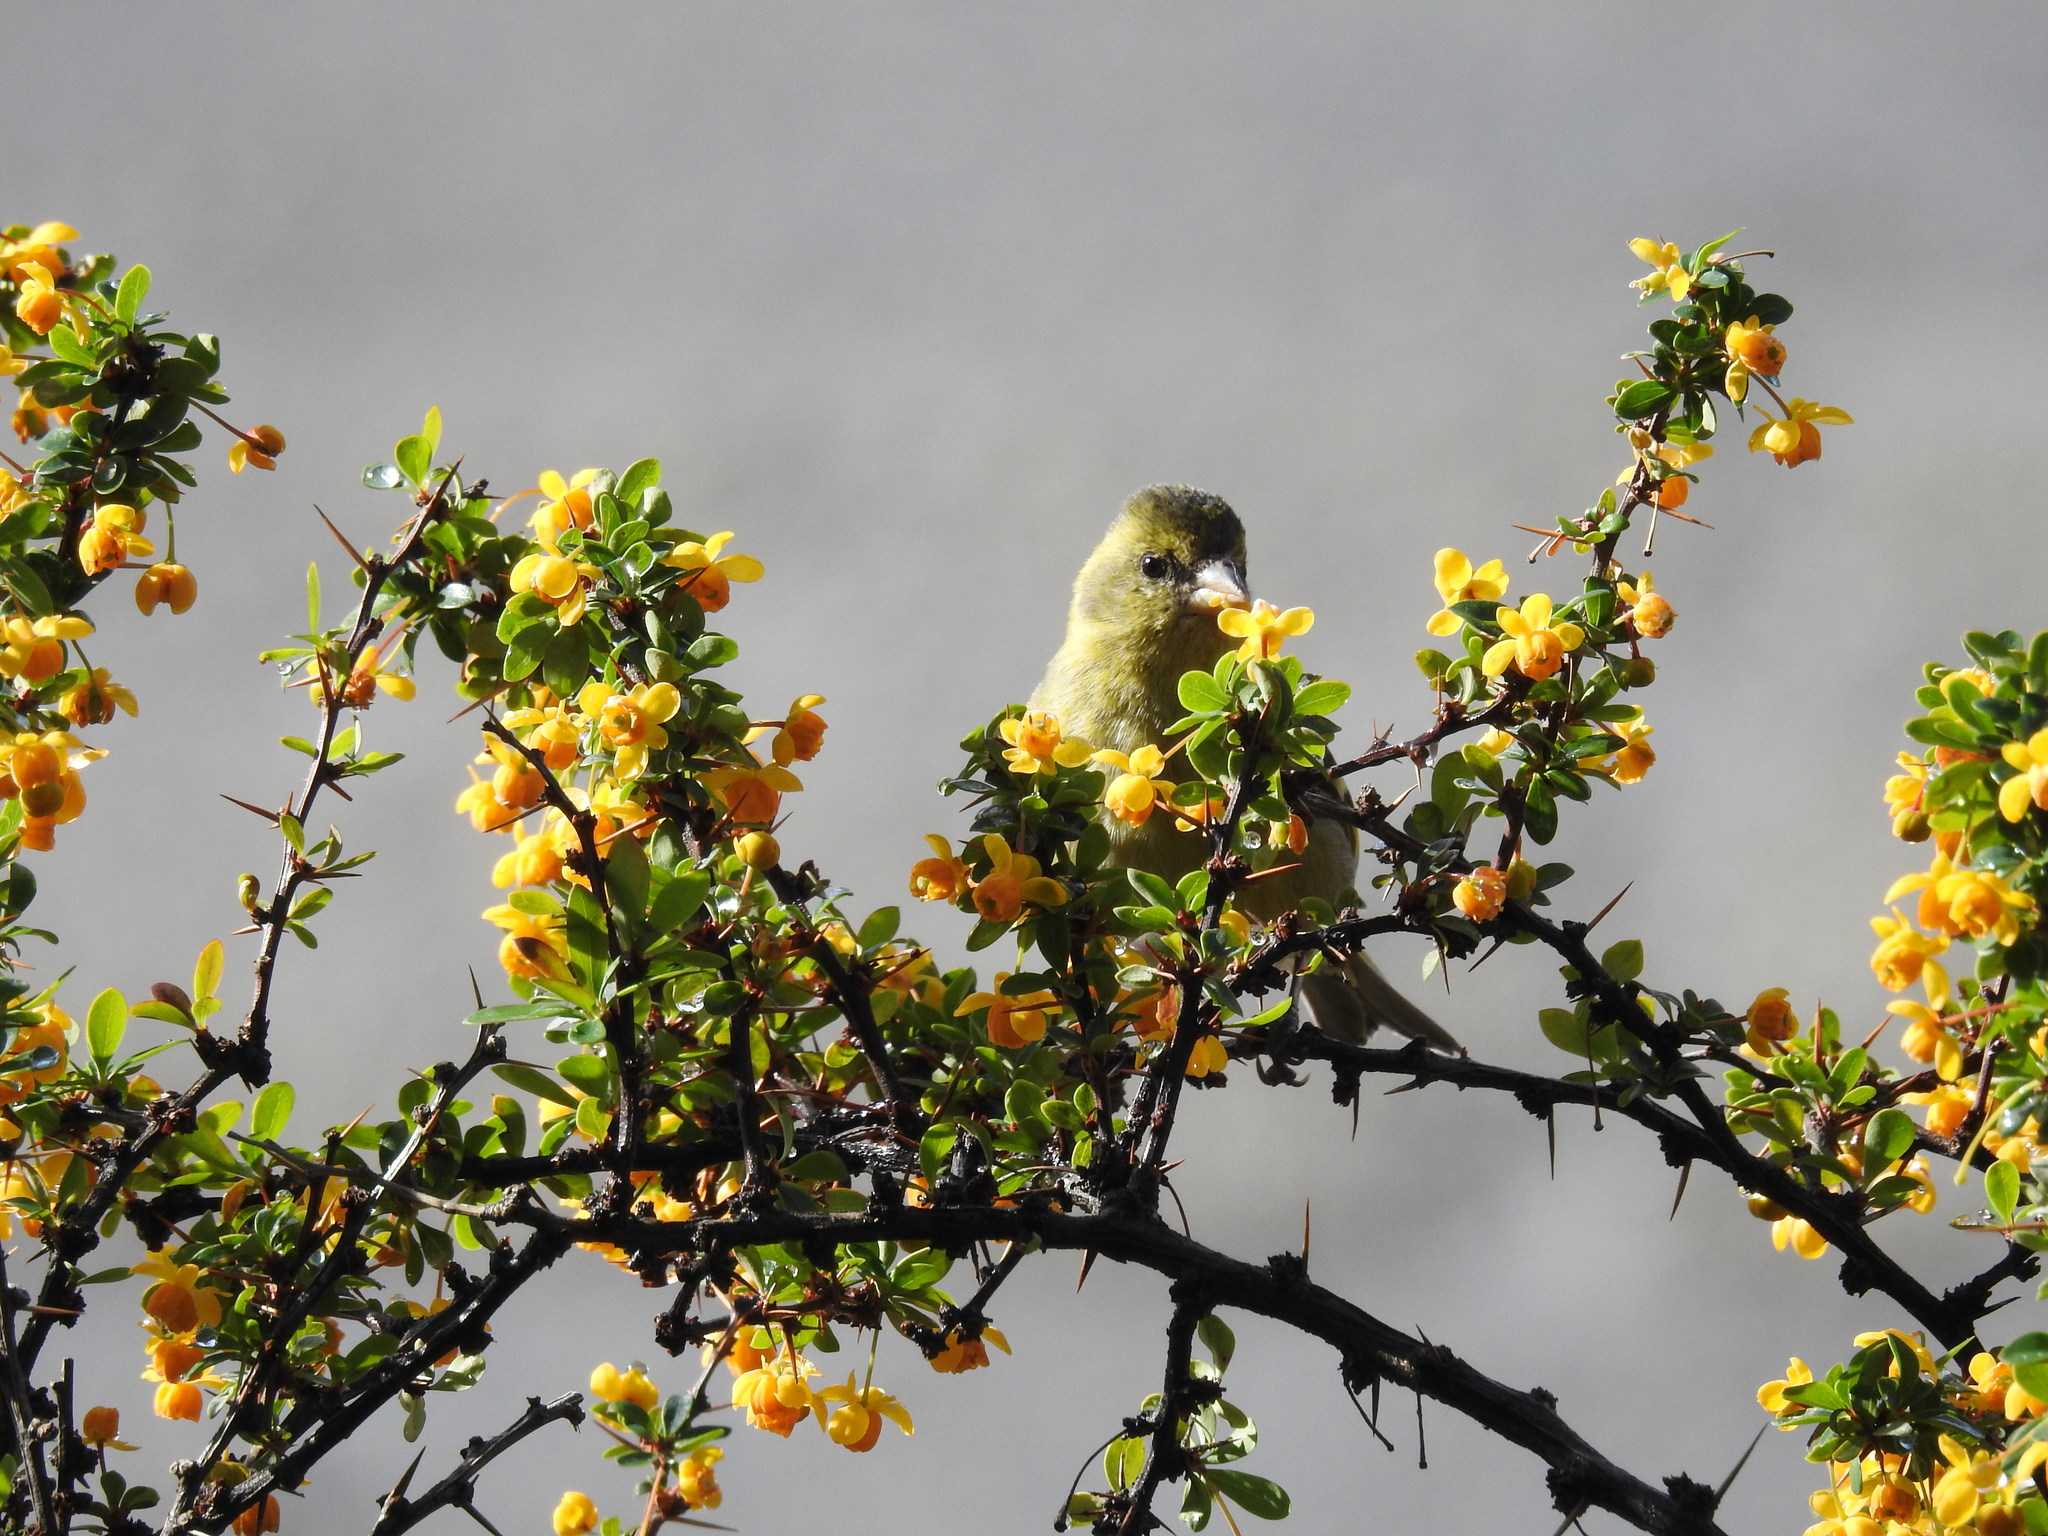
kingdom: Animalia
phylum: Chordata
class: Aves
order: Passeriformes
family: Fringillidae
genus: Spinus
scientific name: Spinus barbatus
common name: Black-chinned siskin
